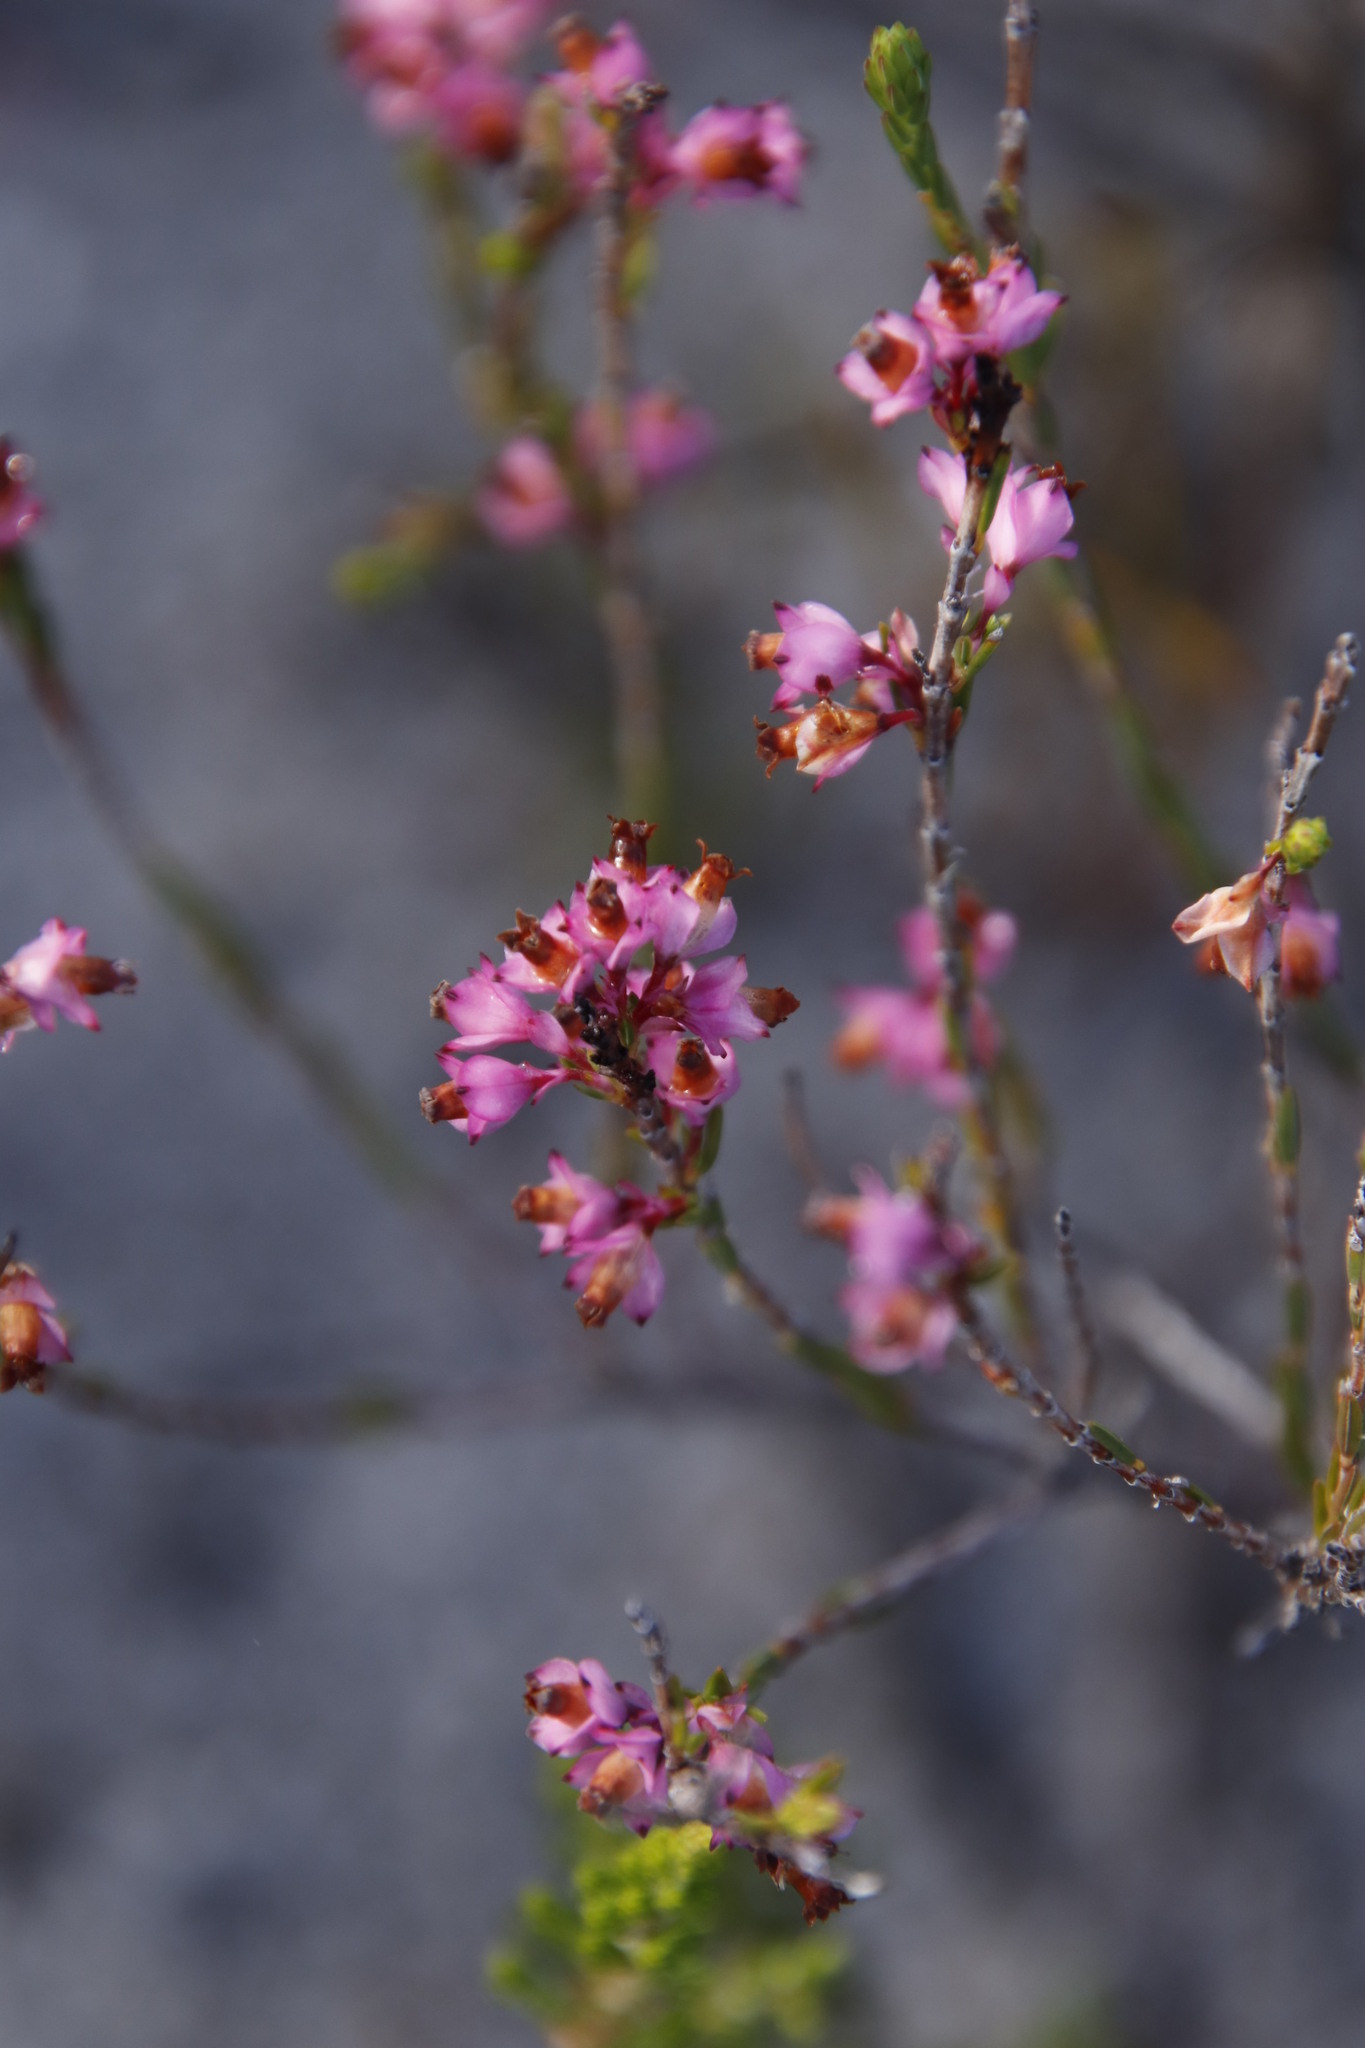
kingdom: Plantae
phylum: Tracheophyta
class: Magnoliopsida
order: Ericales
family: Ericaceae
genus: Erica
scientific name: Erica corifolia
